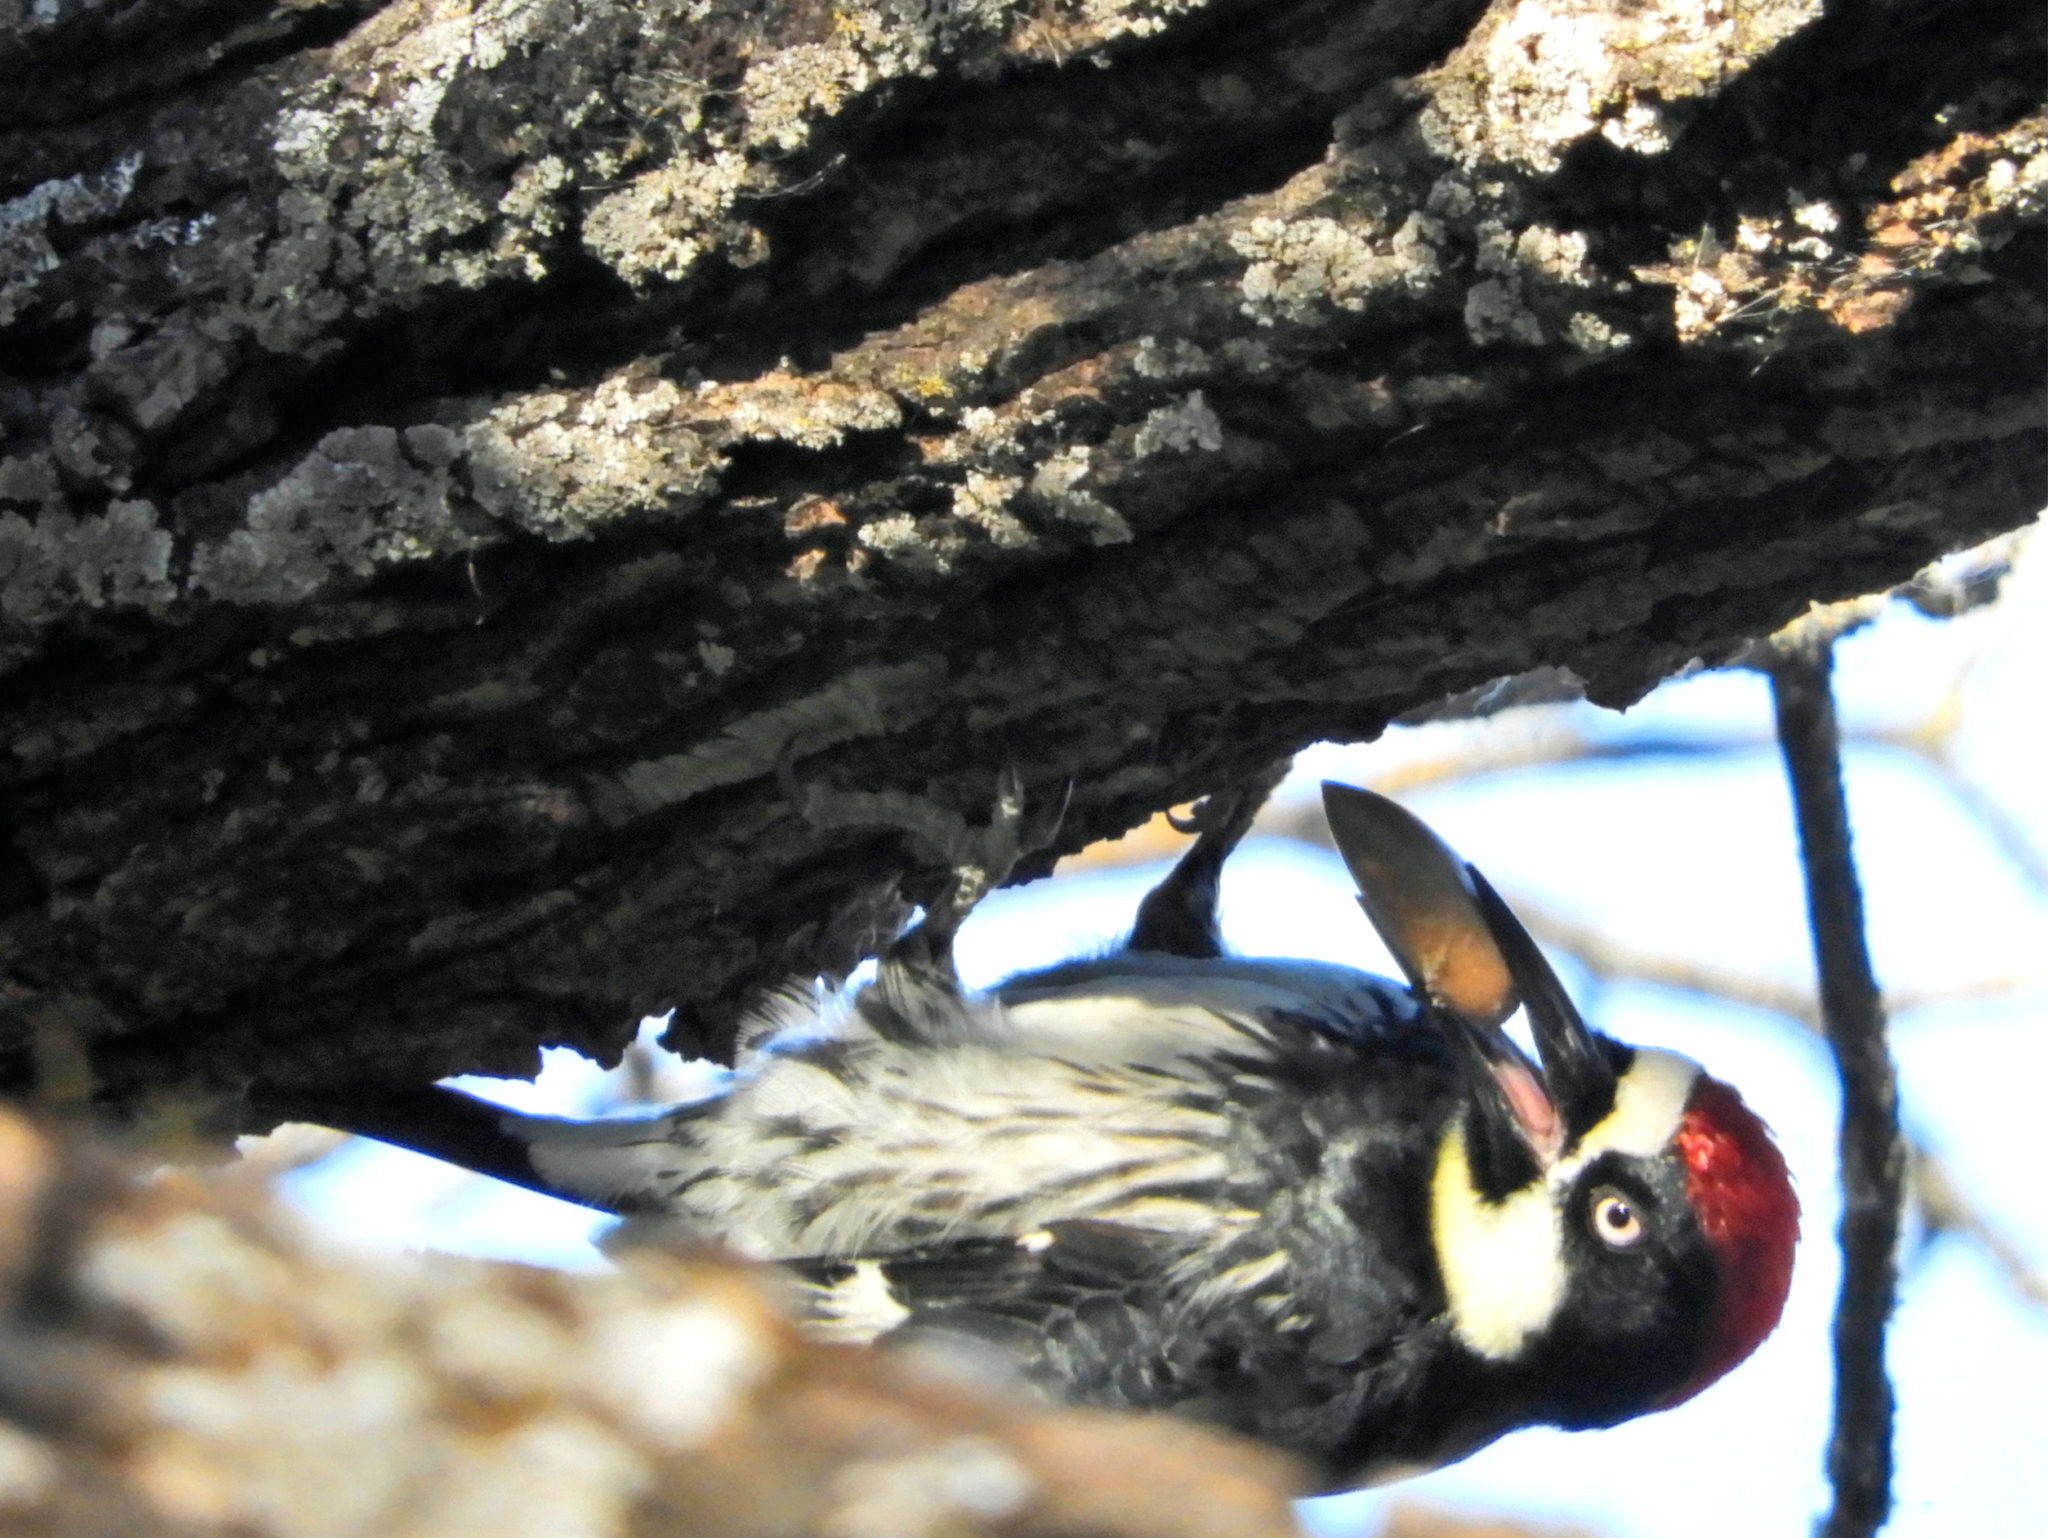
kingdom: Animalia
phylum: Chordata
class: Aves
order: Piciformes
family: Picidae
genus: Melanerpes
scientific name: Melanerpes formicivorus
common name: Acorn woodpecker
